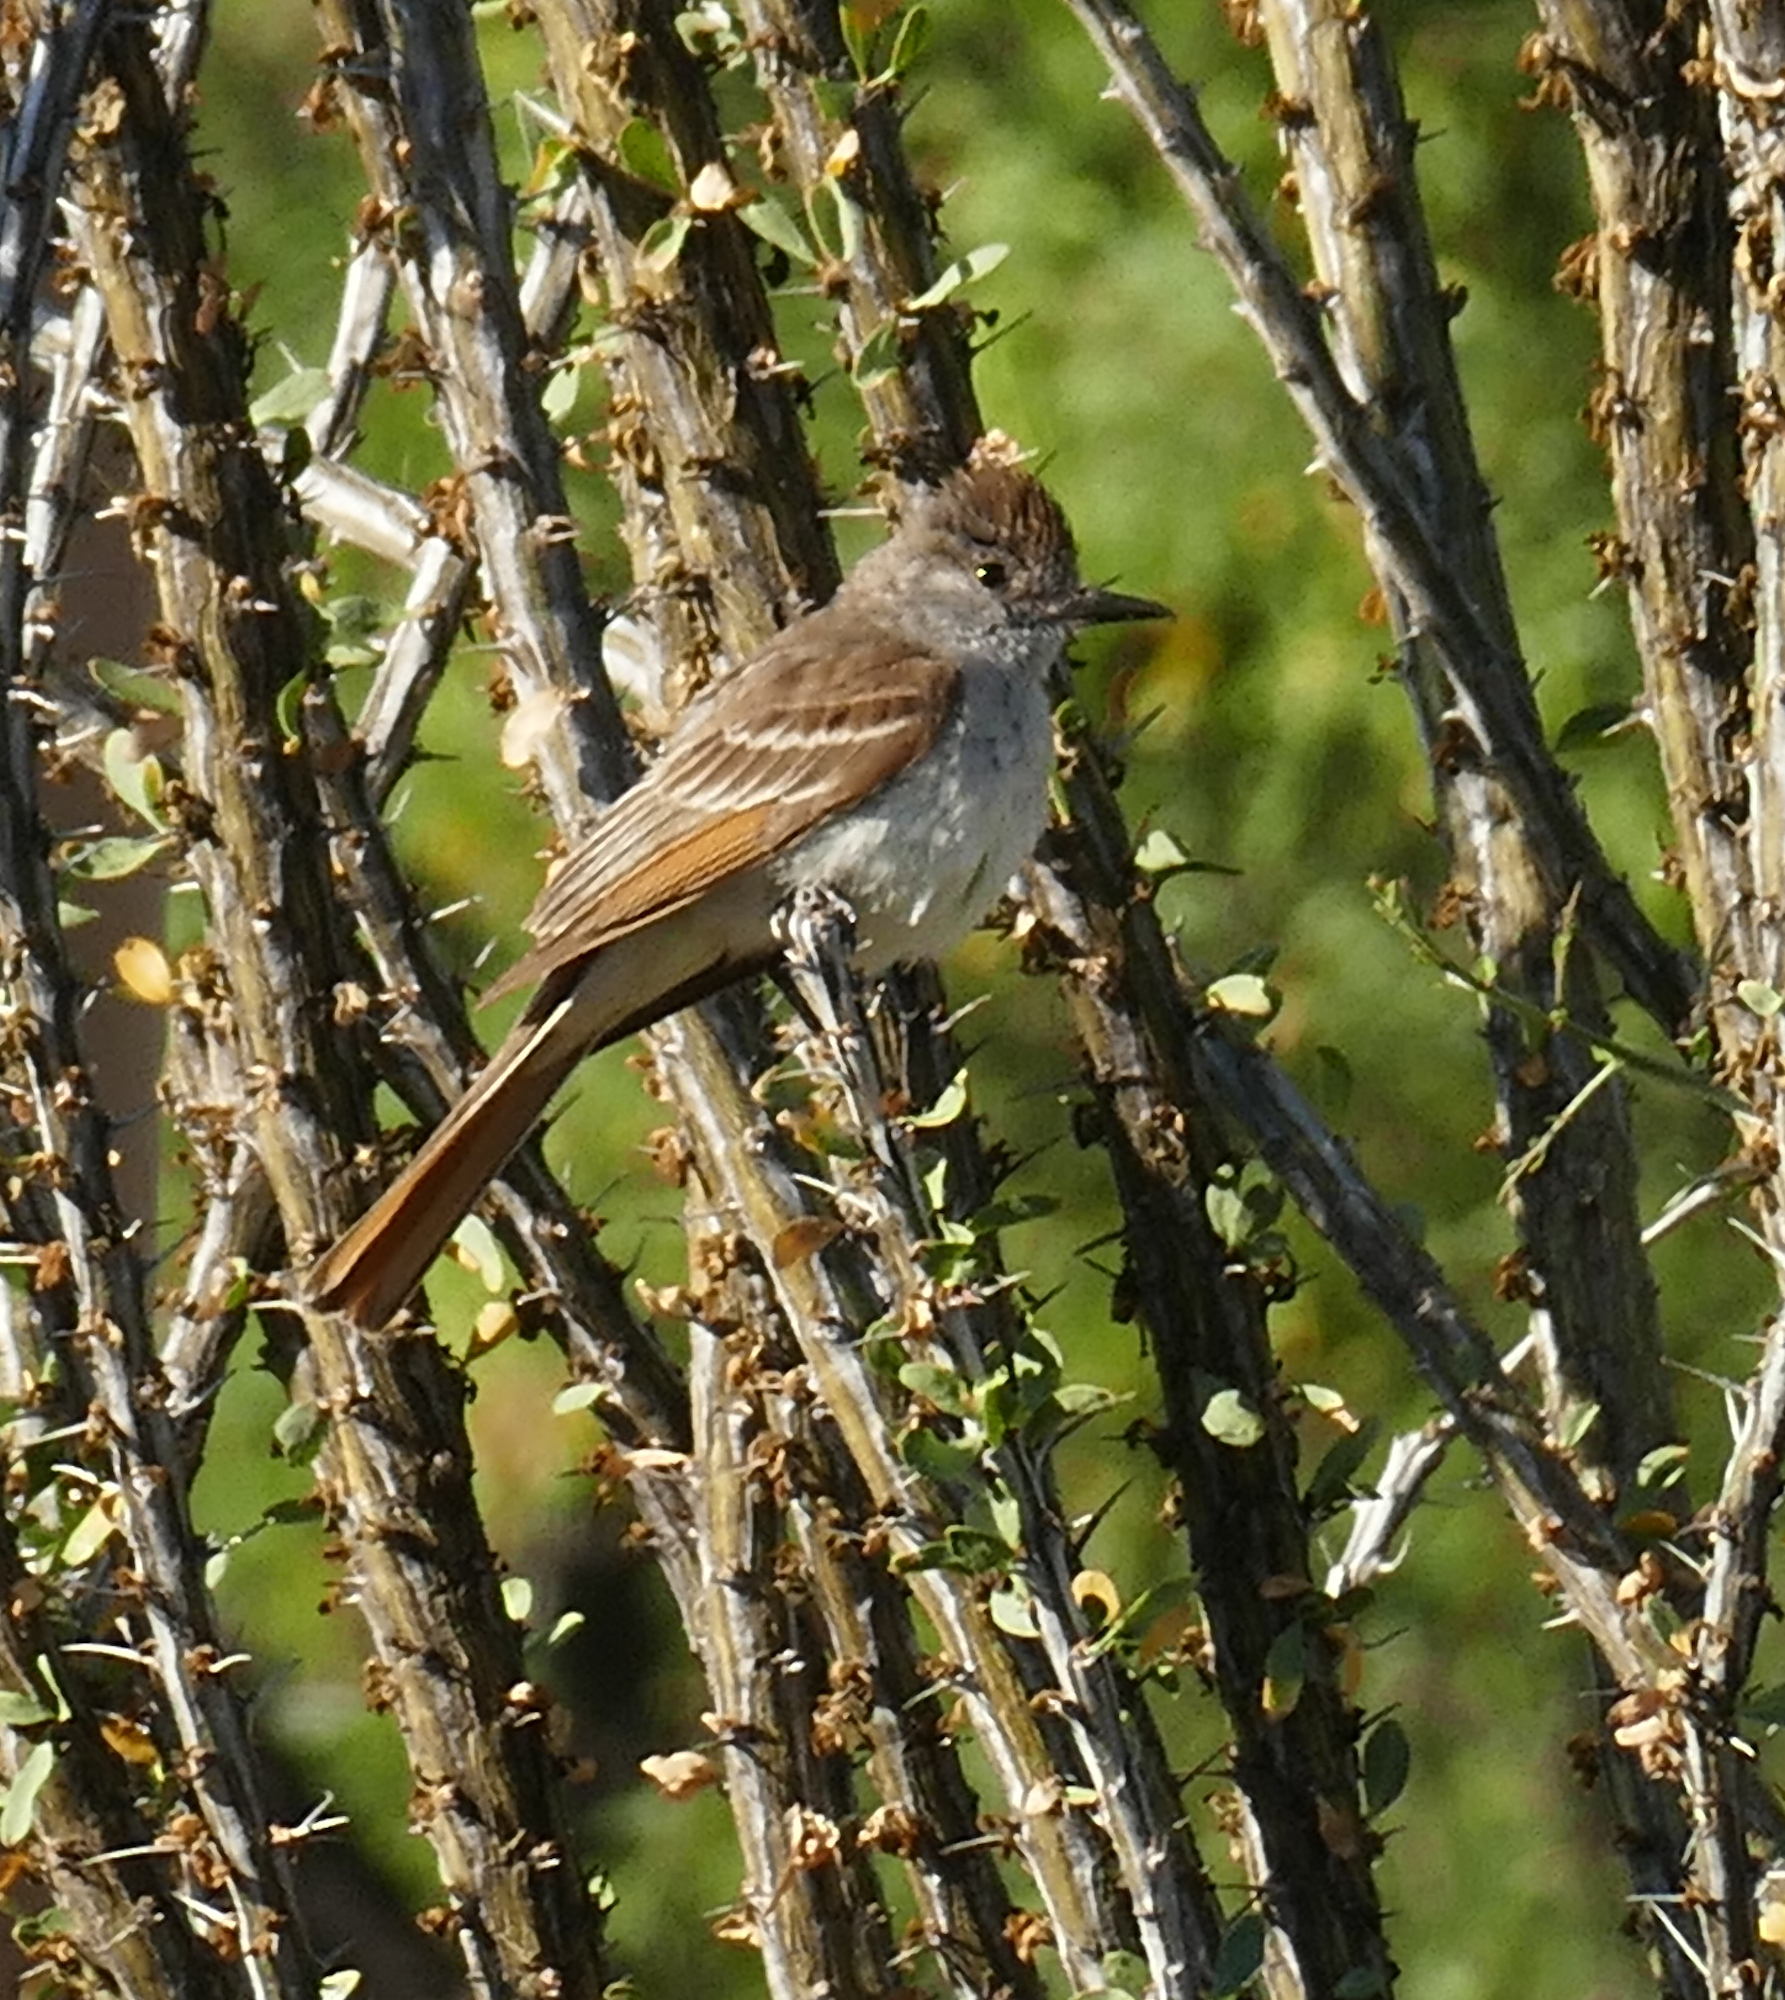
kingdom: Animalia
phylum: Chordata
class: Aves
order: Passeriformes
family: Tyrannidae
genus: Myiarchus
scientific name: Myiarchus cinerascens
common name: Ash-throated flycatcher
